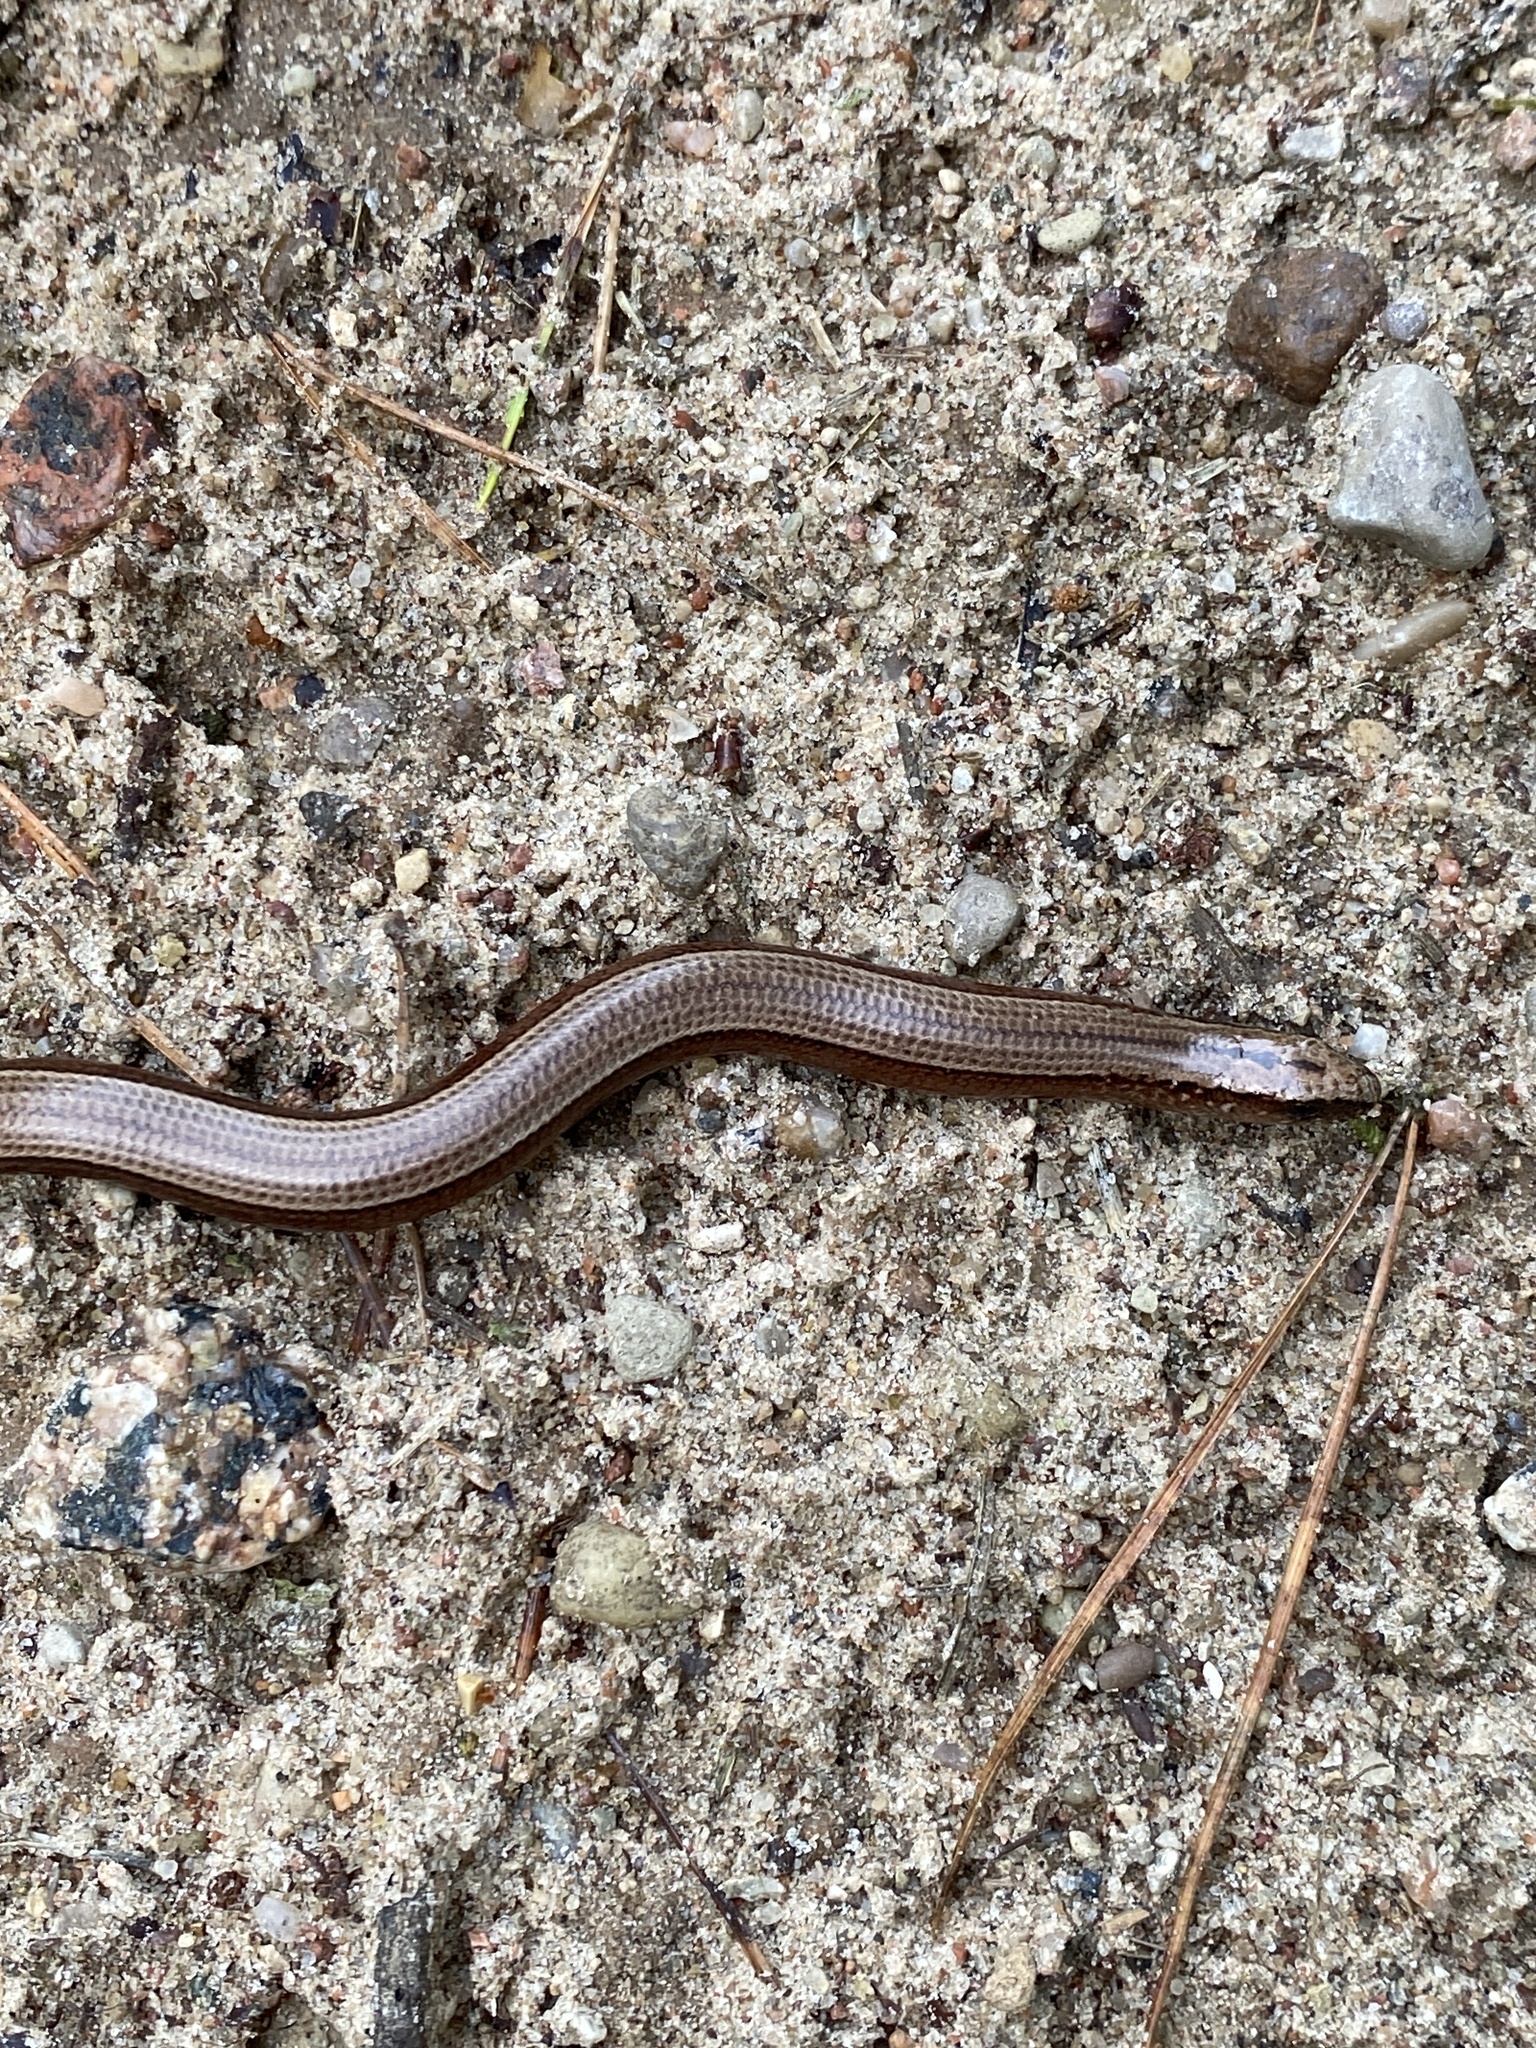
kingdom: Animalia
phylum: Chordata
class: Squamata
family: Anguidae
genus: Anguis
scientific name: Anguis fragilis
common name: Slow worm
